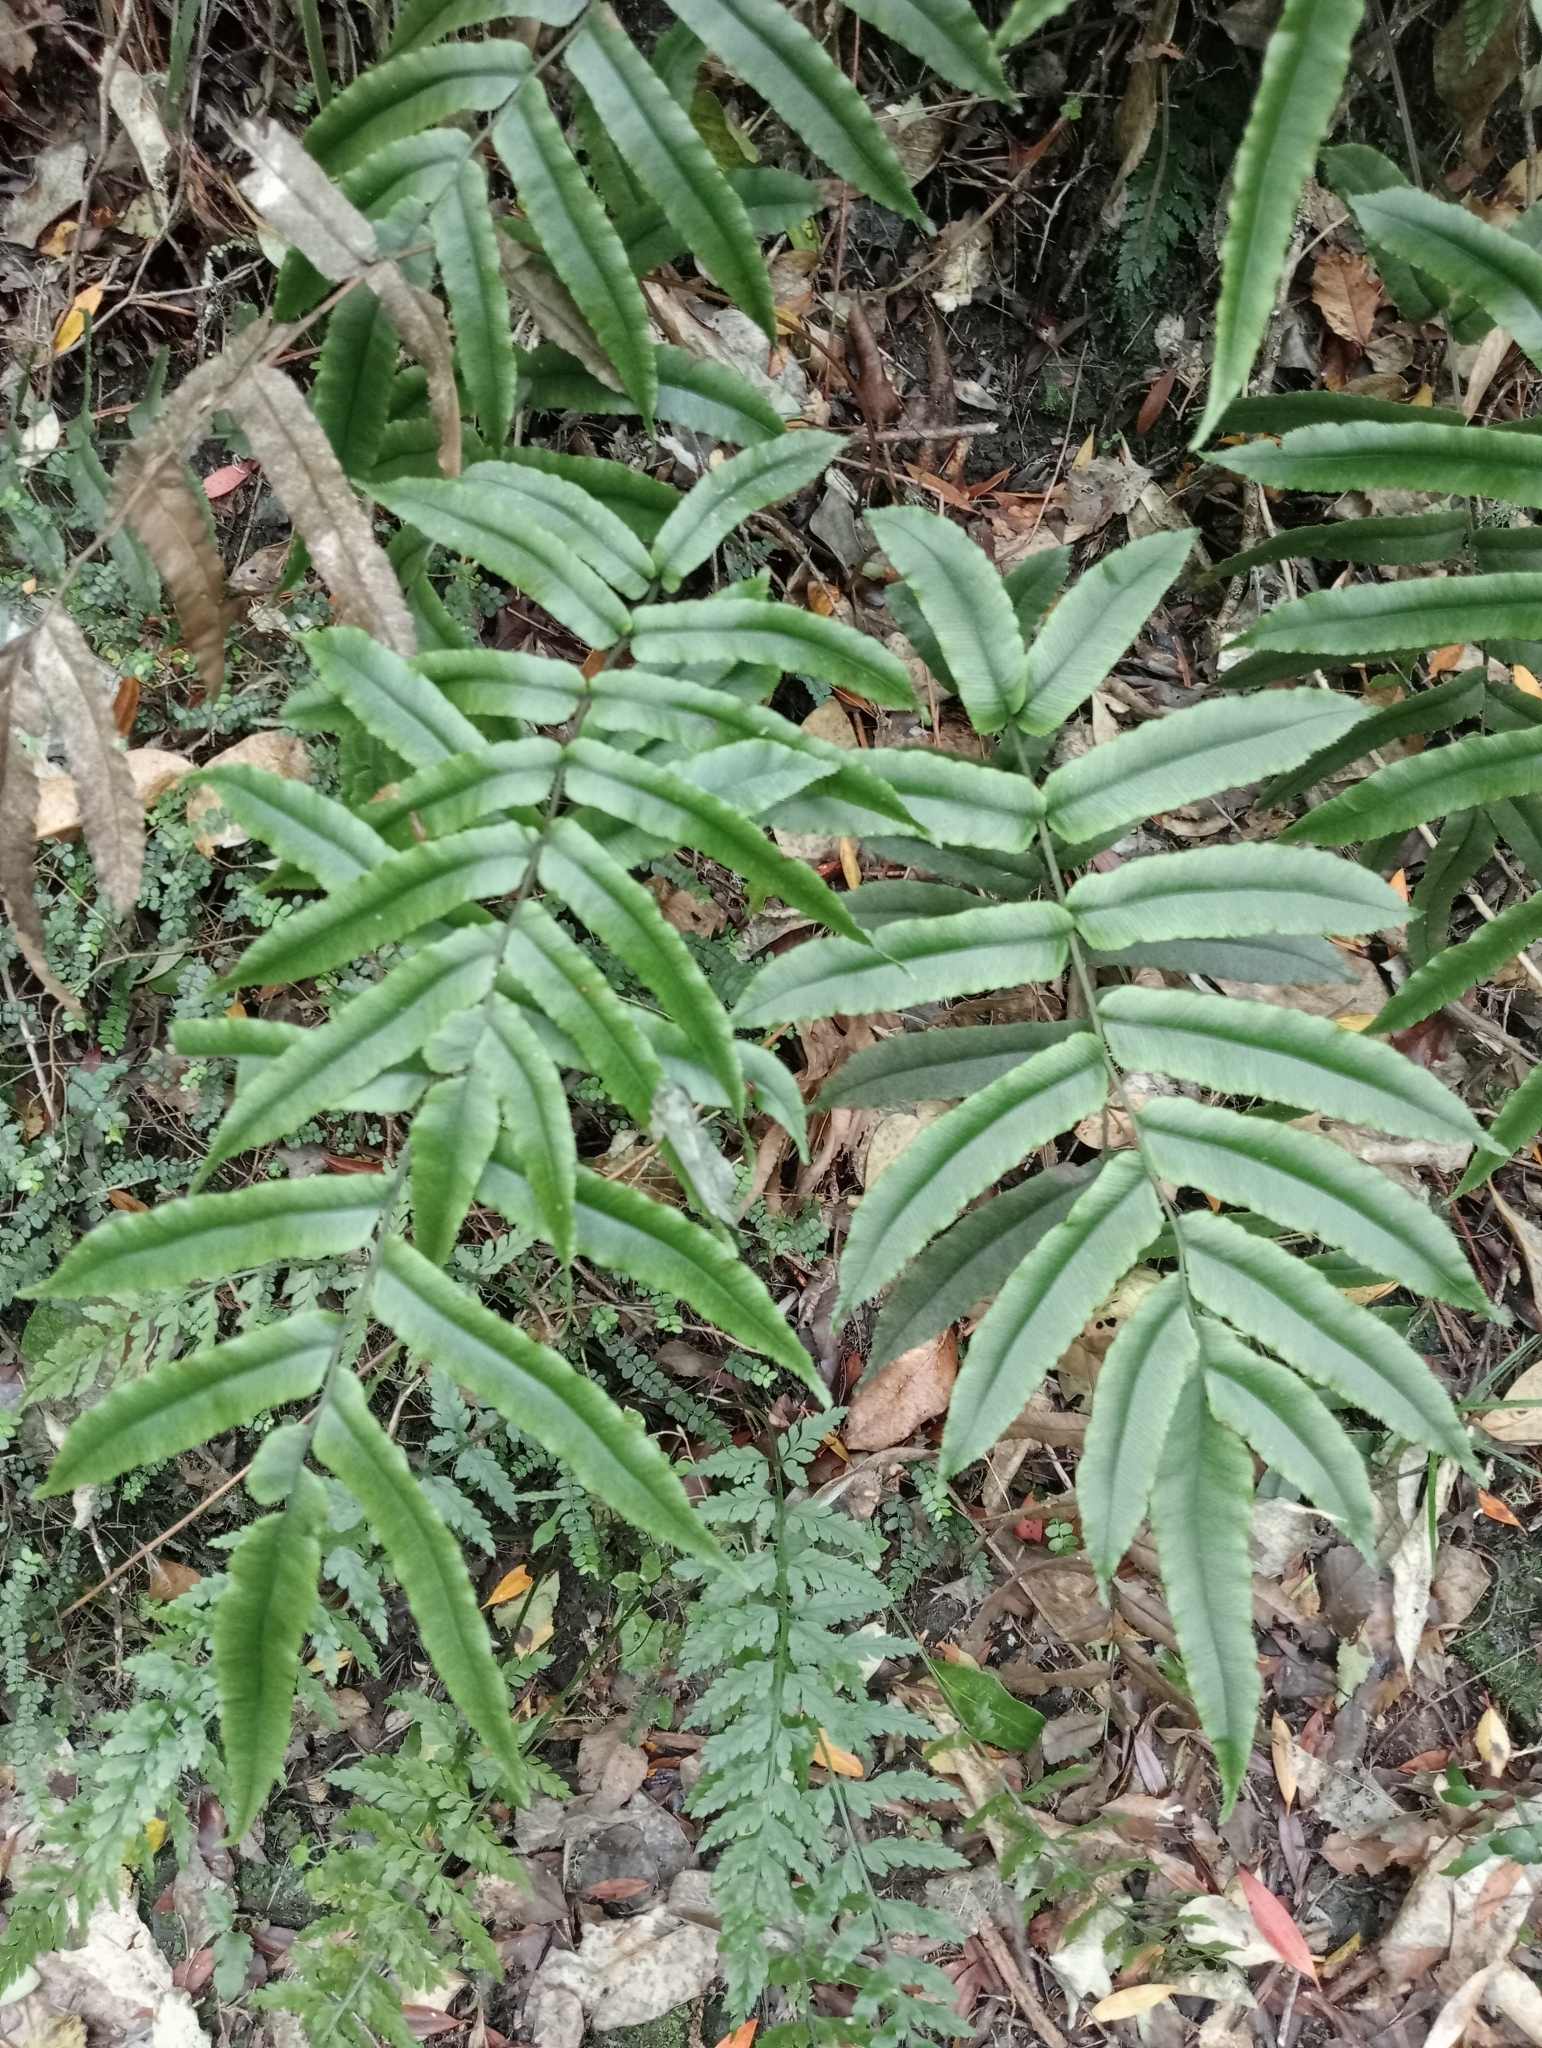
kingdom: Plantae
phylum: Tracheophyta
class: Polypodiopsida
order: Polypodiales
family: Blechnaceae
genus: Parablechnum
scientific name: Parablechnum procerum
